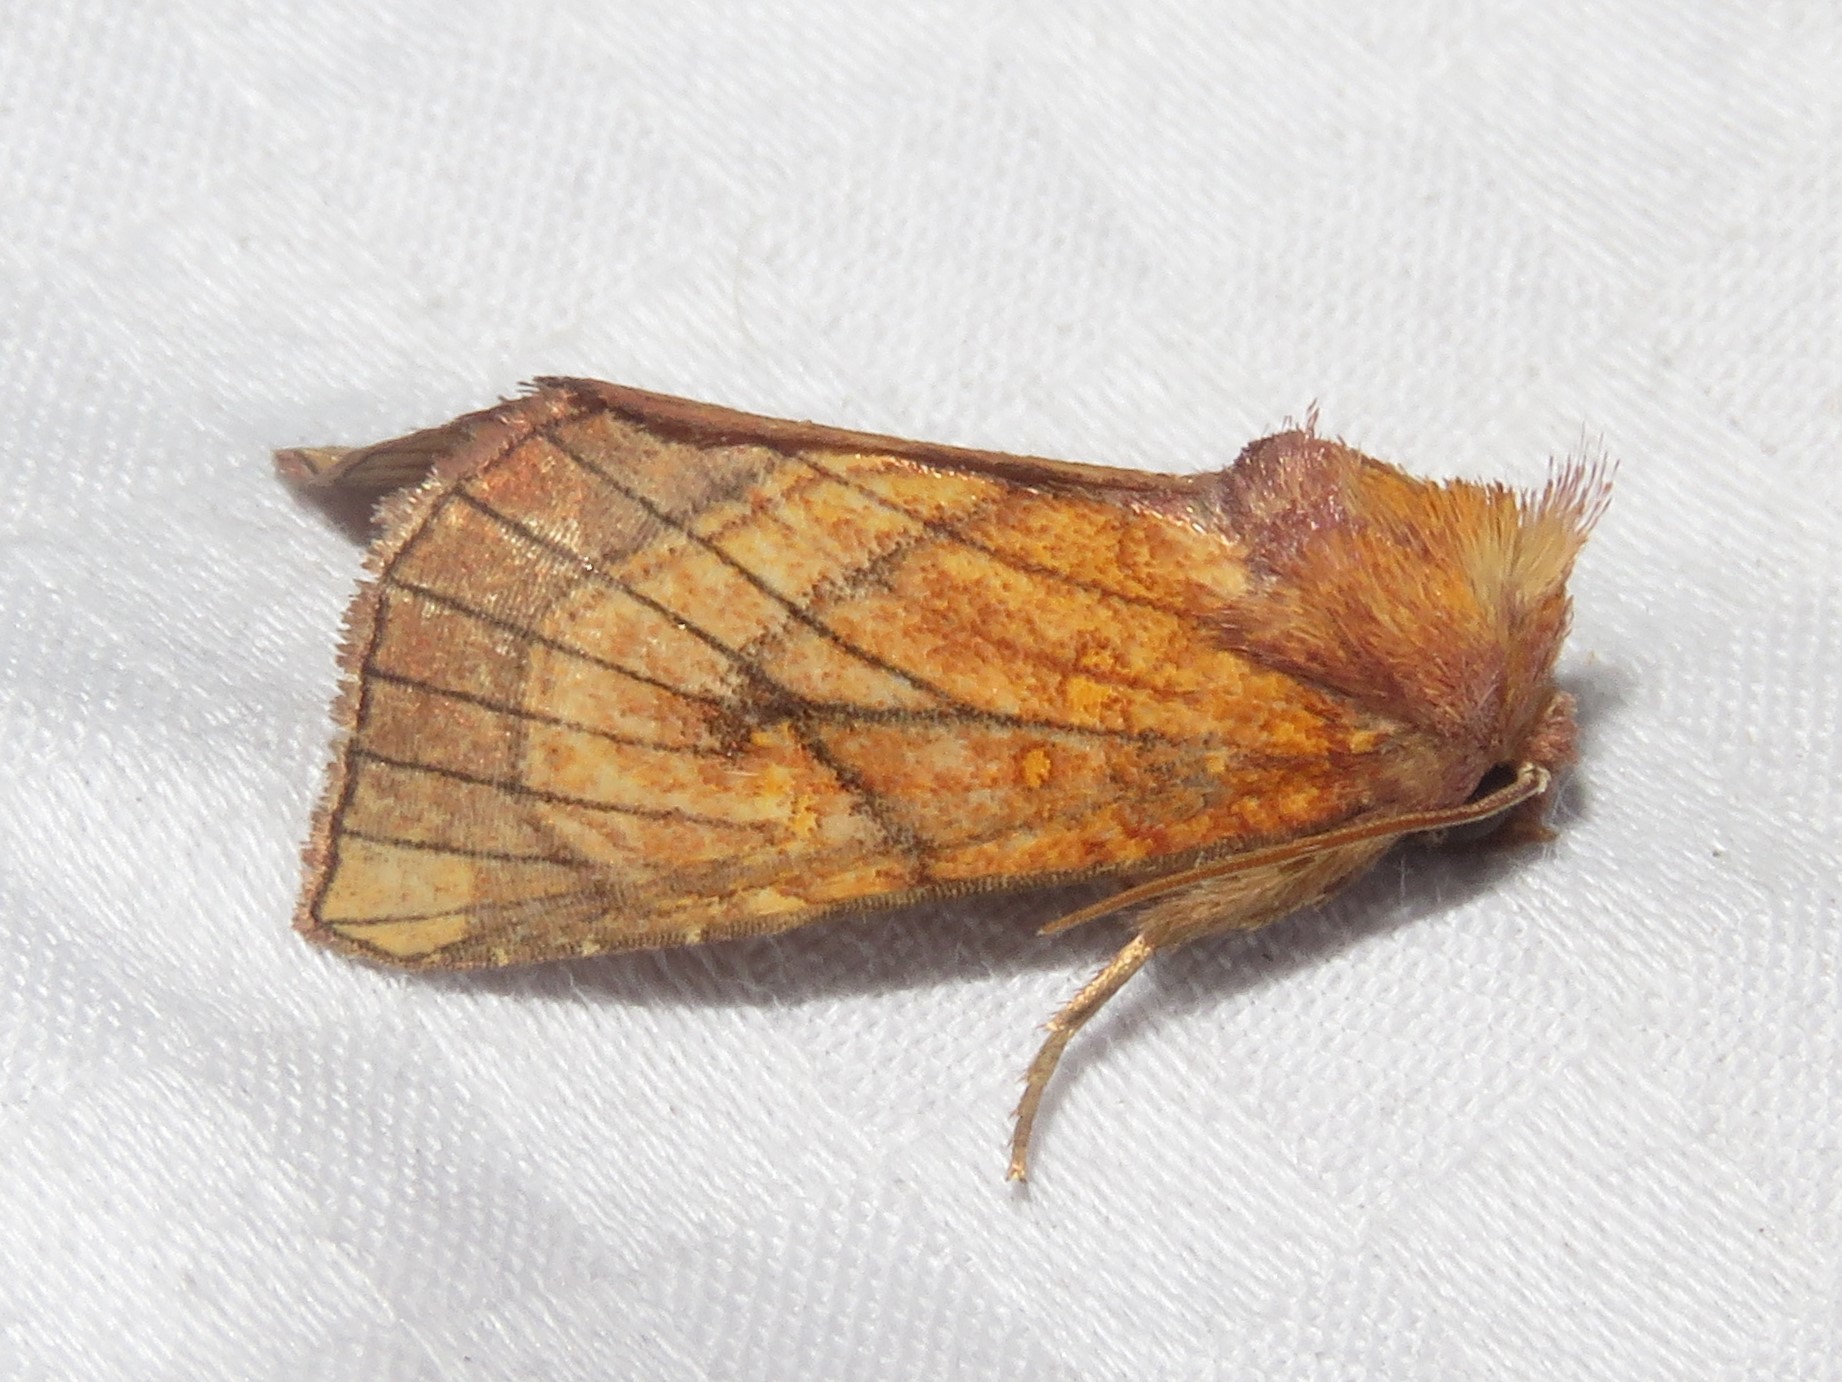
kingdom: Animalia
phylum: Arthropoda
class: Insecta
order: Lepidoptera
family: Noctuidae
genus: Papaipema
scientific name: Papaipema inquaesita
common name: Sensitive fern borer moth
